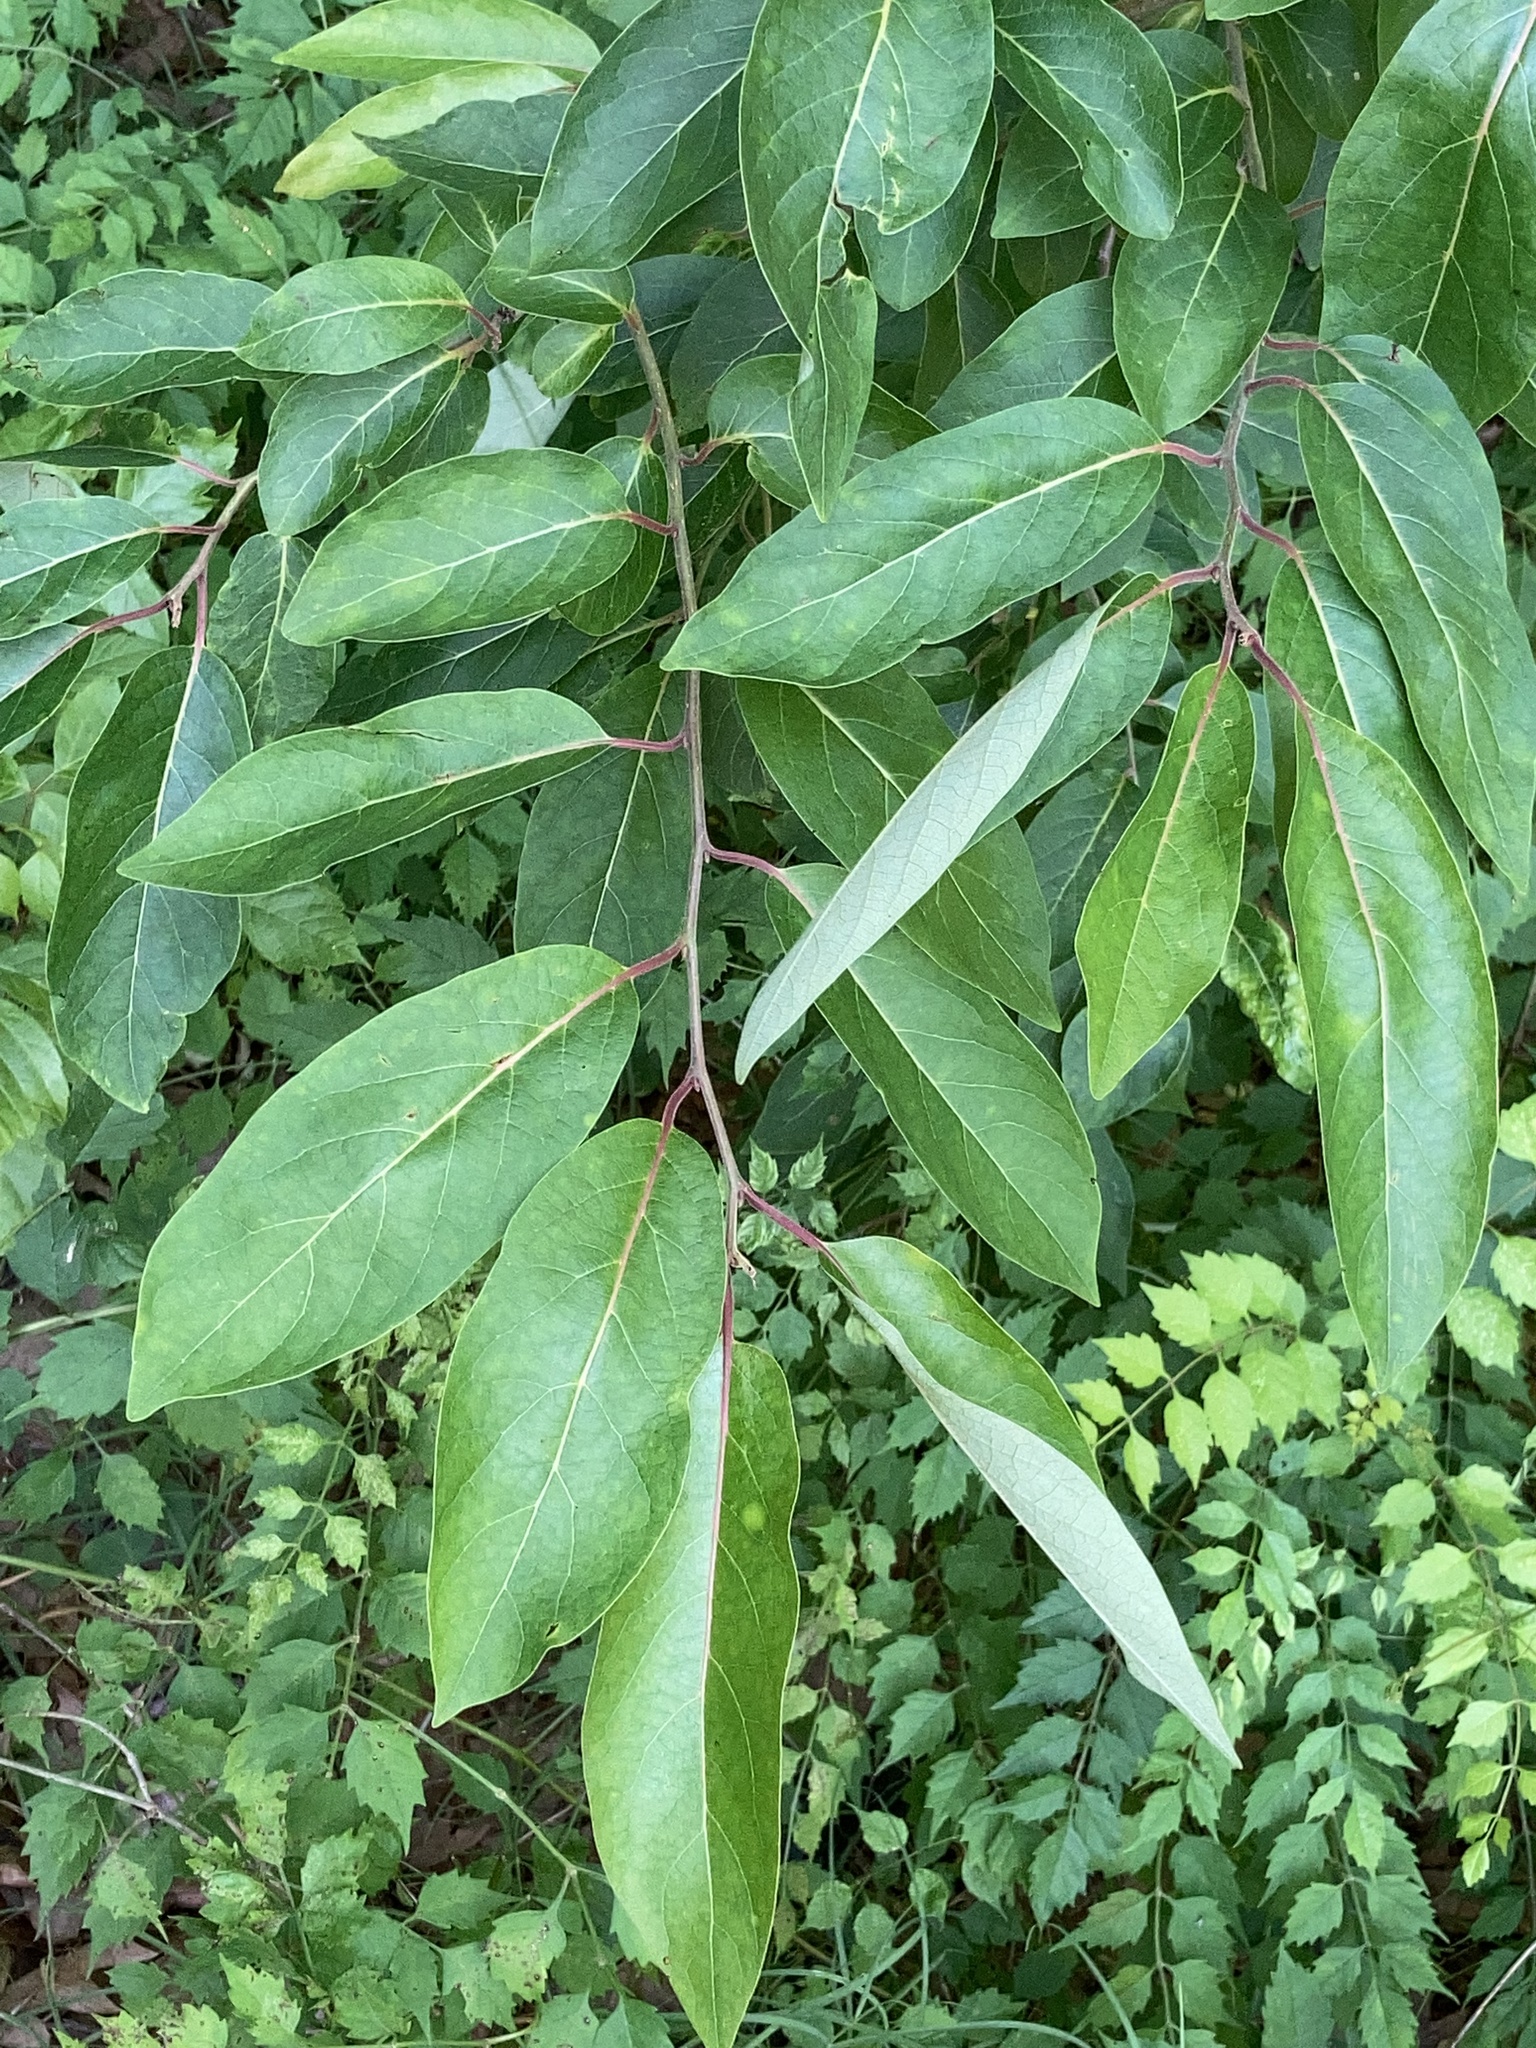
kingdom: Plantae
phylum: Tracheophyta
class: Magnoliopsida
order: Ericales
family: Ebenaceae
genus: Diospyros
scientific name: Diospyros virginiana
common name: Persimmon
